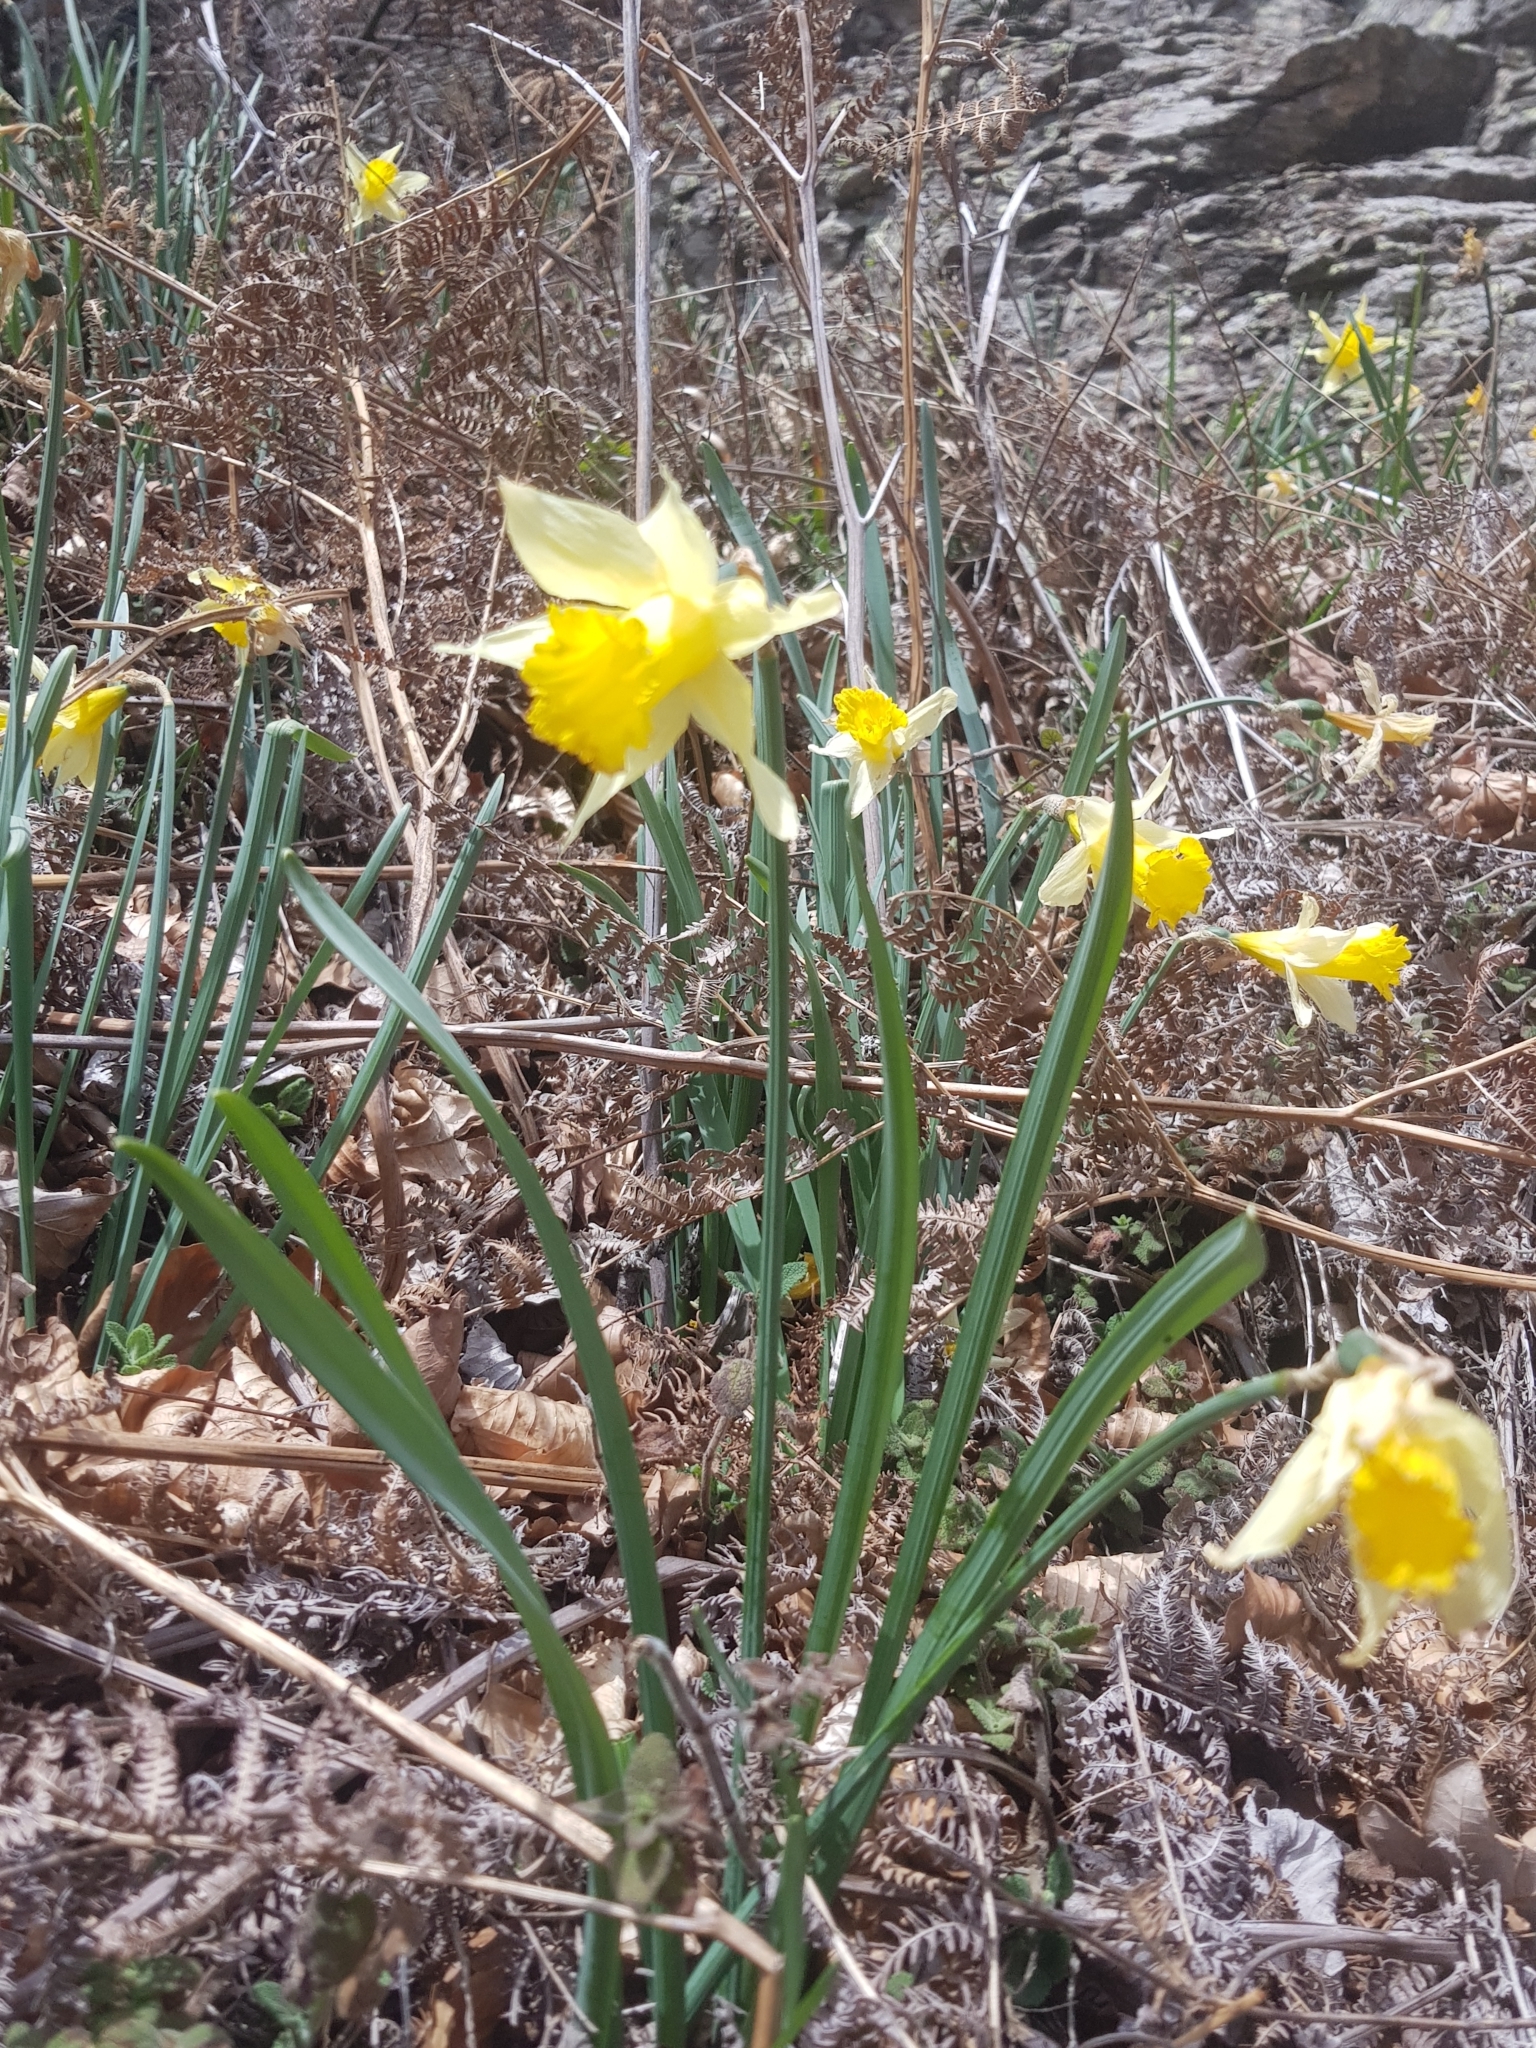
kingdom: Plantae
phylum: Tracheophyta
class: Liliopsida
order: Asparagales
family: Amaryllidaceae
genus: Narcissus
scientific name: Narcissus pseudonarcissus
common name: Daffodil
